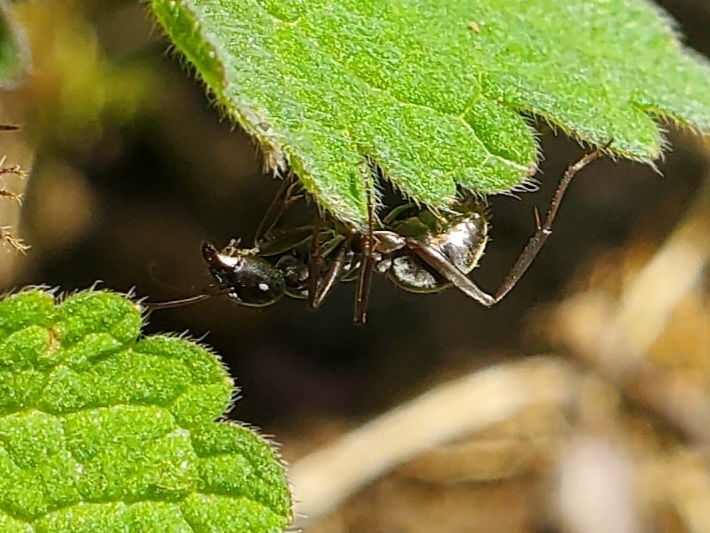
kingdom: Animalia
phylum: Arthropoda
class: Insecta
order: Hymenoptera
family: Formicidae
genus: Formica
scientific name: Formica subsericea
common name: Silky field ant
